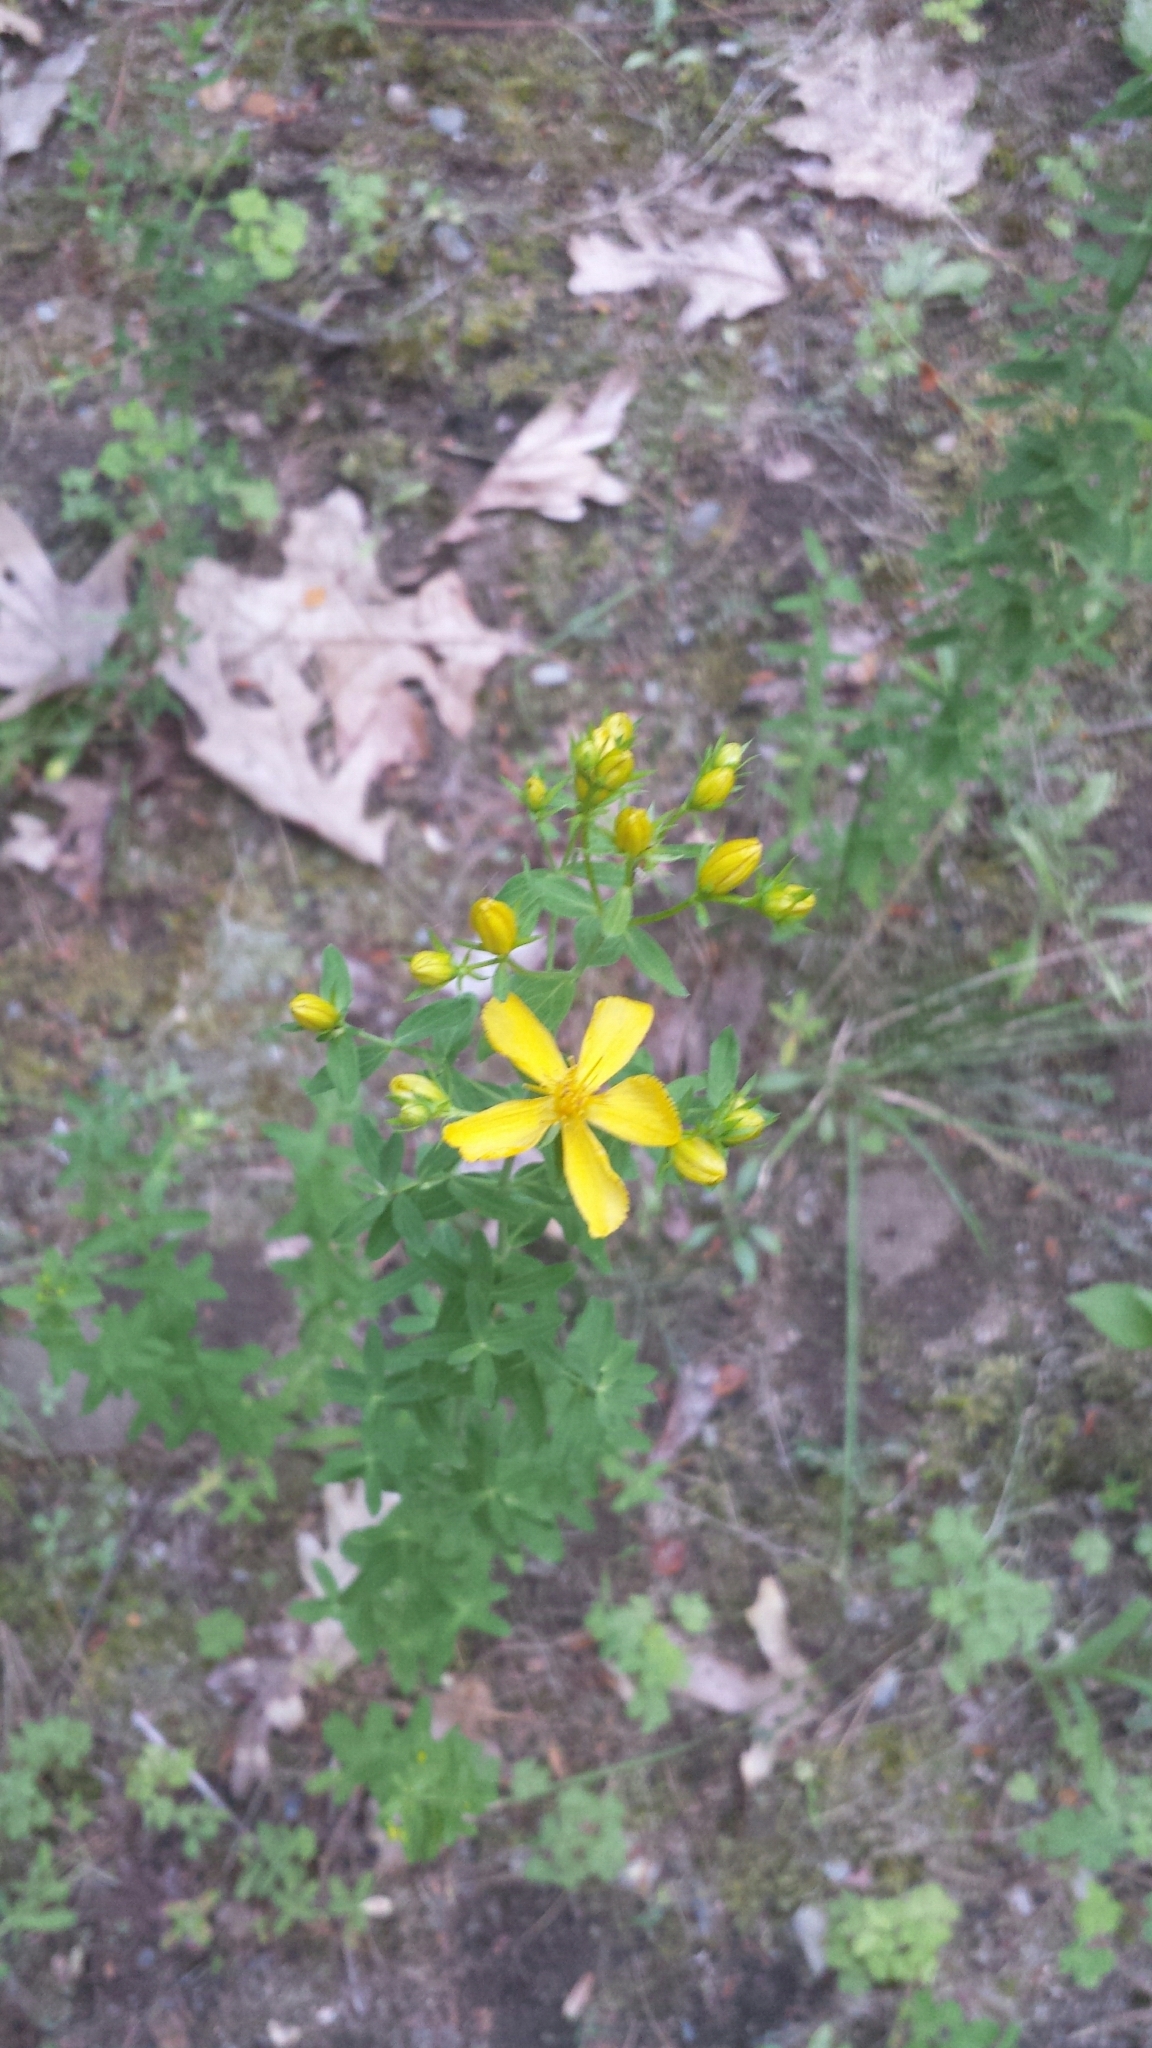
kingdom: Plantae
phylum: Tracheophyta
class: Magnoliopsida
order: Malpighiales
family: Hypericaceae
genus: Hypericum
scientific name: Hypericum perforatum
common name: Common st. johnswort
